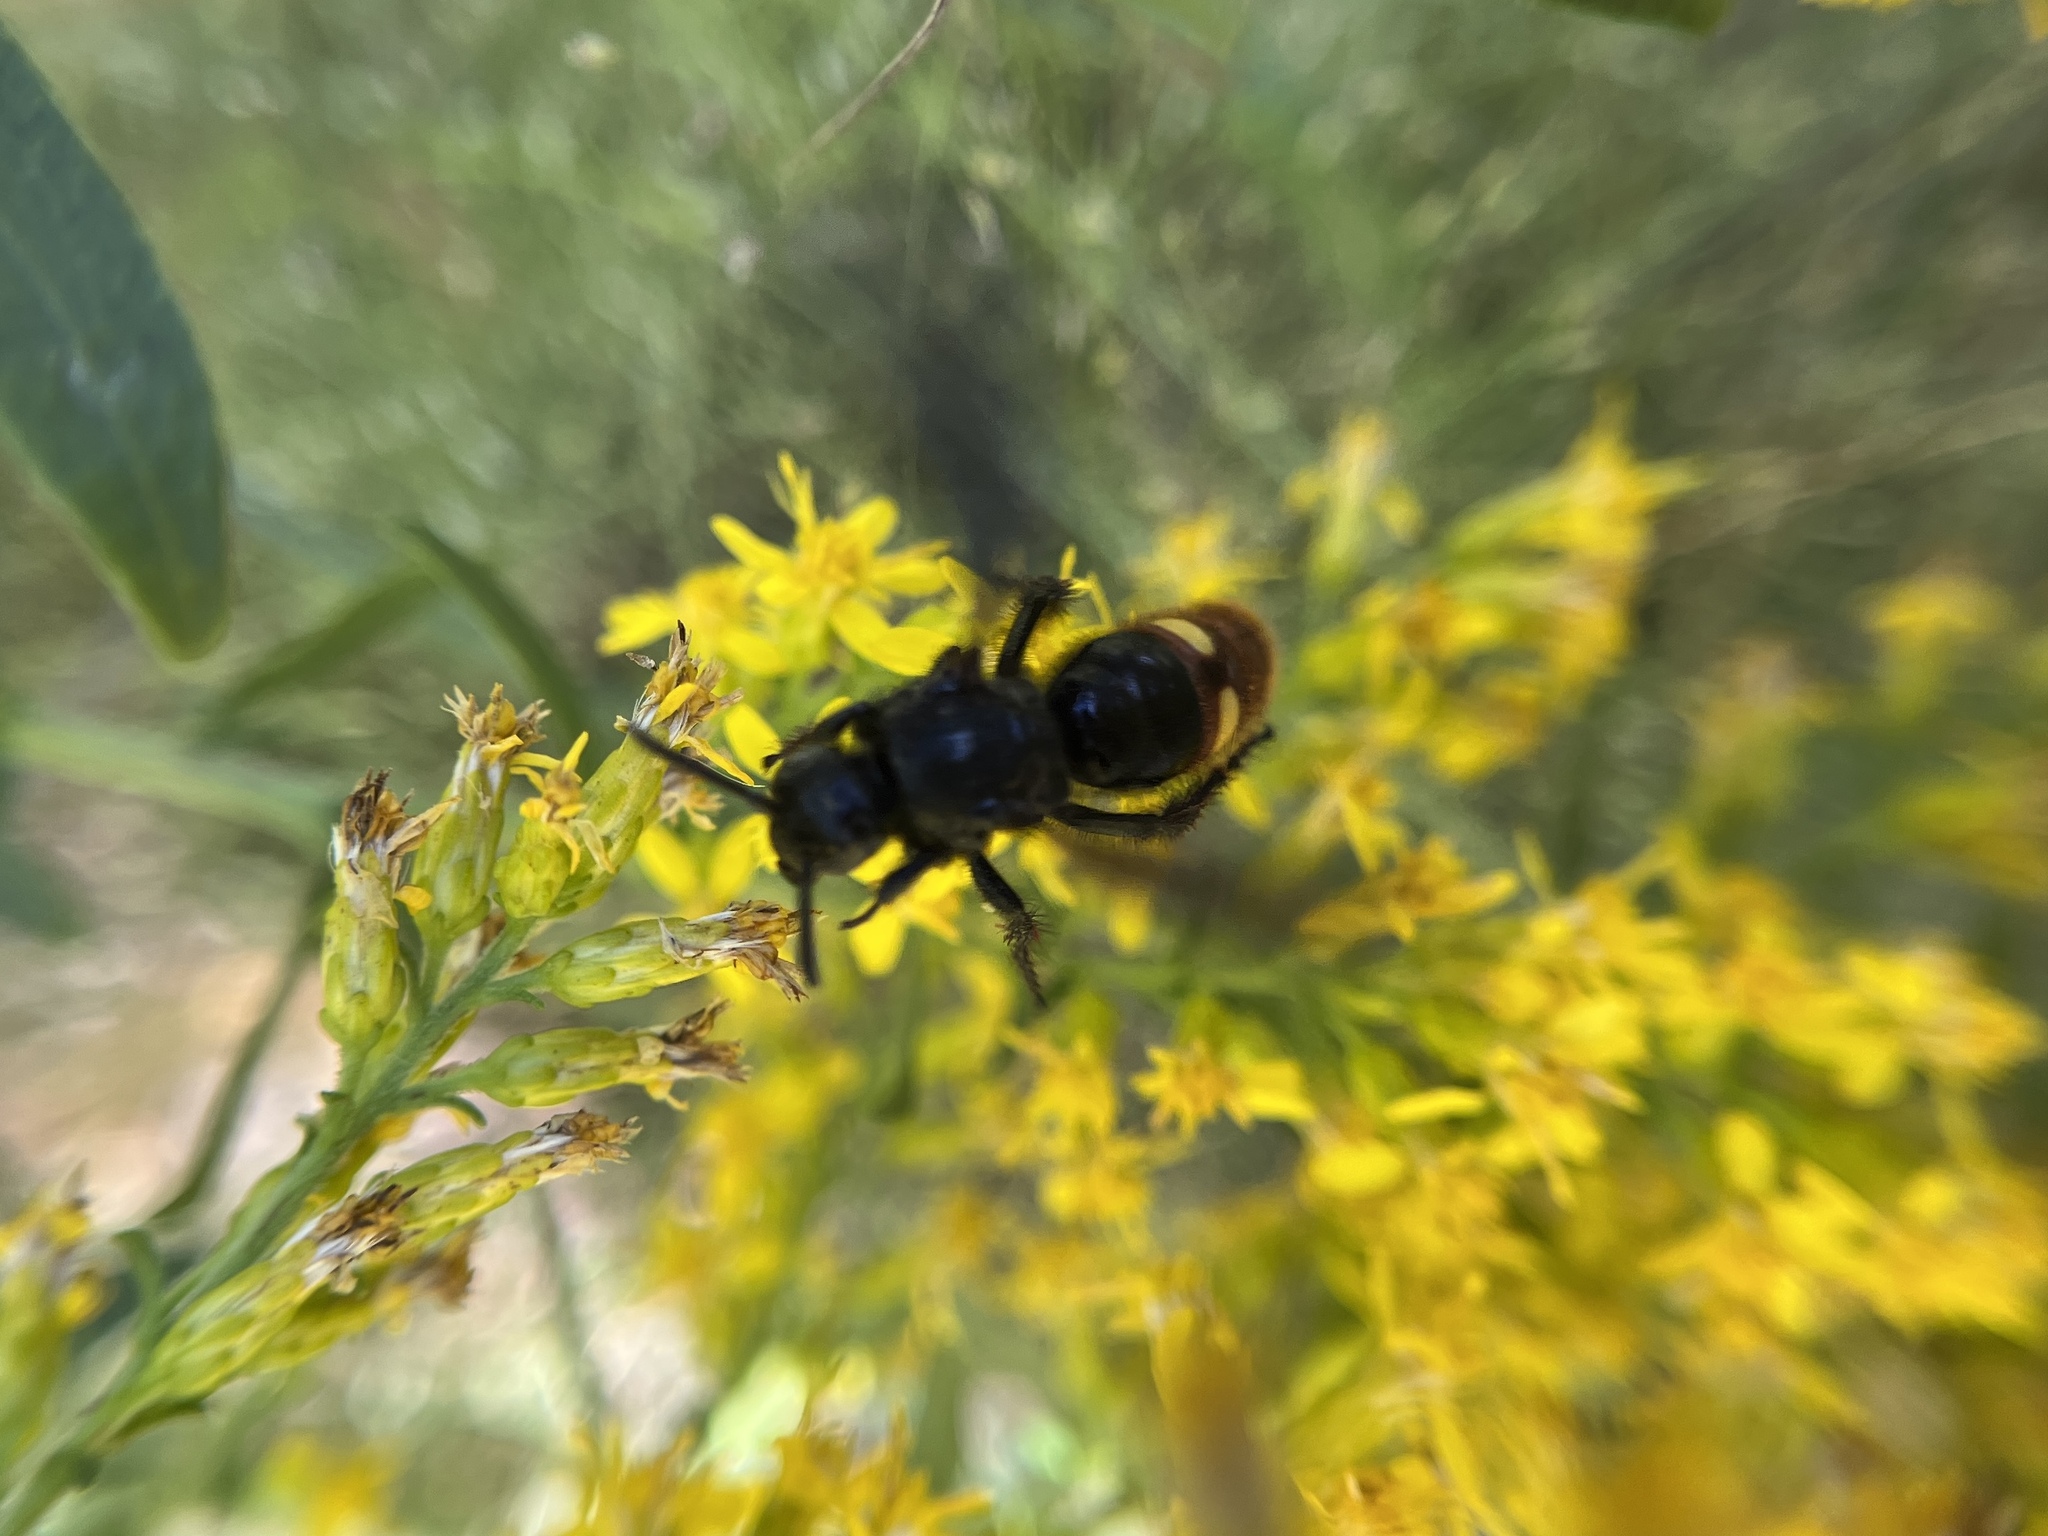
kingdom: Animalia
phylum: Arthropoda
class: Insecta
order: Hymenoptera
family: Scoliidae
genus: Scolia
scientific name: Scolia dubia
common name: Blue-winged scoliid wasp
